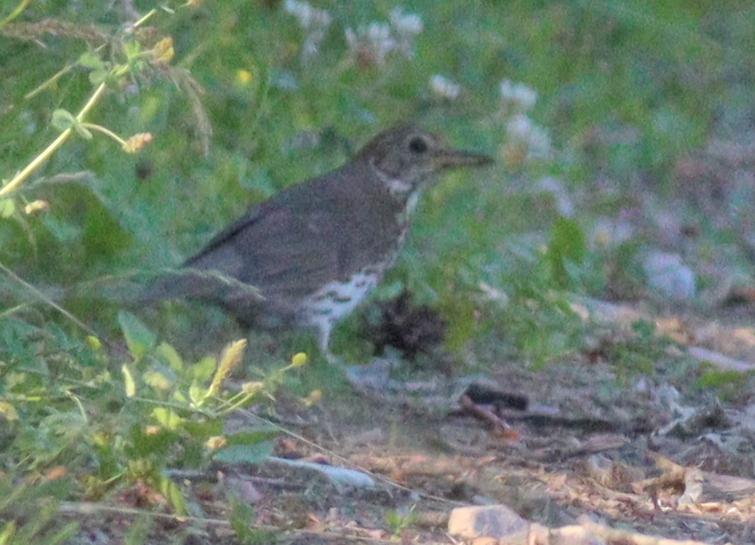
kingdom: Animalia
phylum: Chordata
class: Aves
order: Passeriformes
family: Turdidae
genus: Turdus
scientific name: Turdus philomelos
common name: Song thrush
